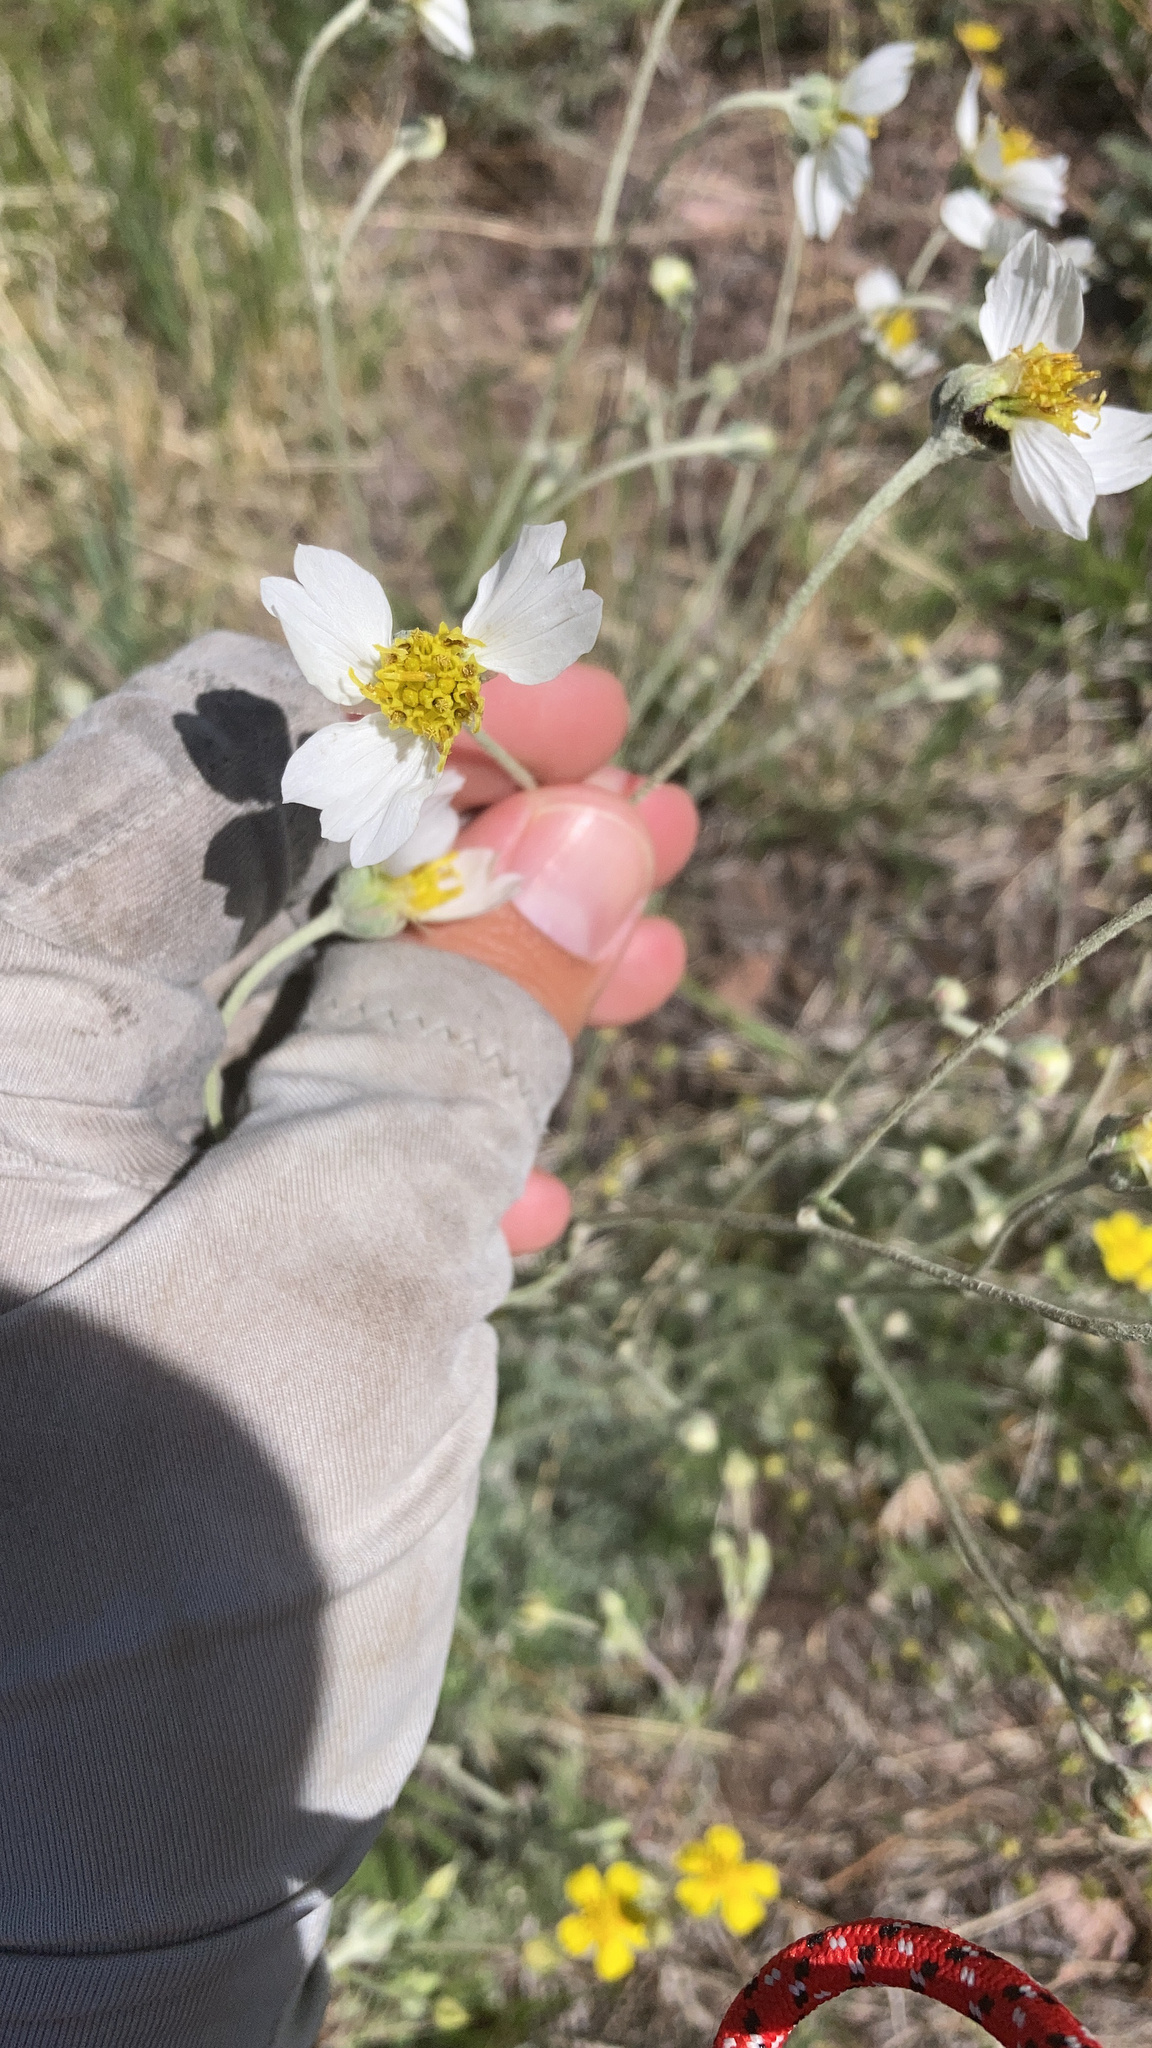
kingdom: Plantae
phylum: Tracheophyta
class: Magnoliopsida
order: Asterales
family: Asteraceae
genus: Hymenopappus
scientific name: Hymenopappus newberryi
